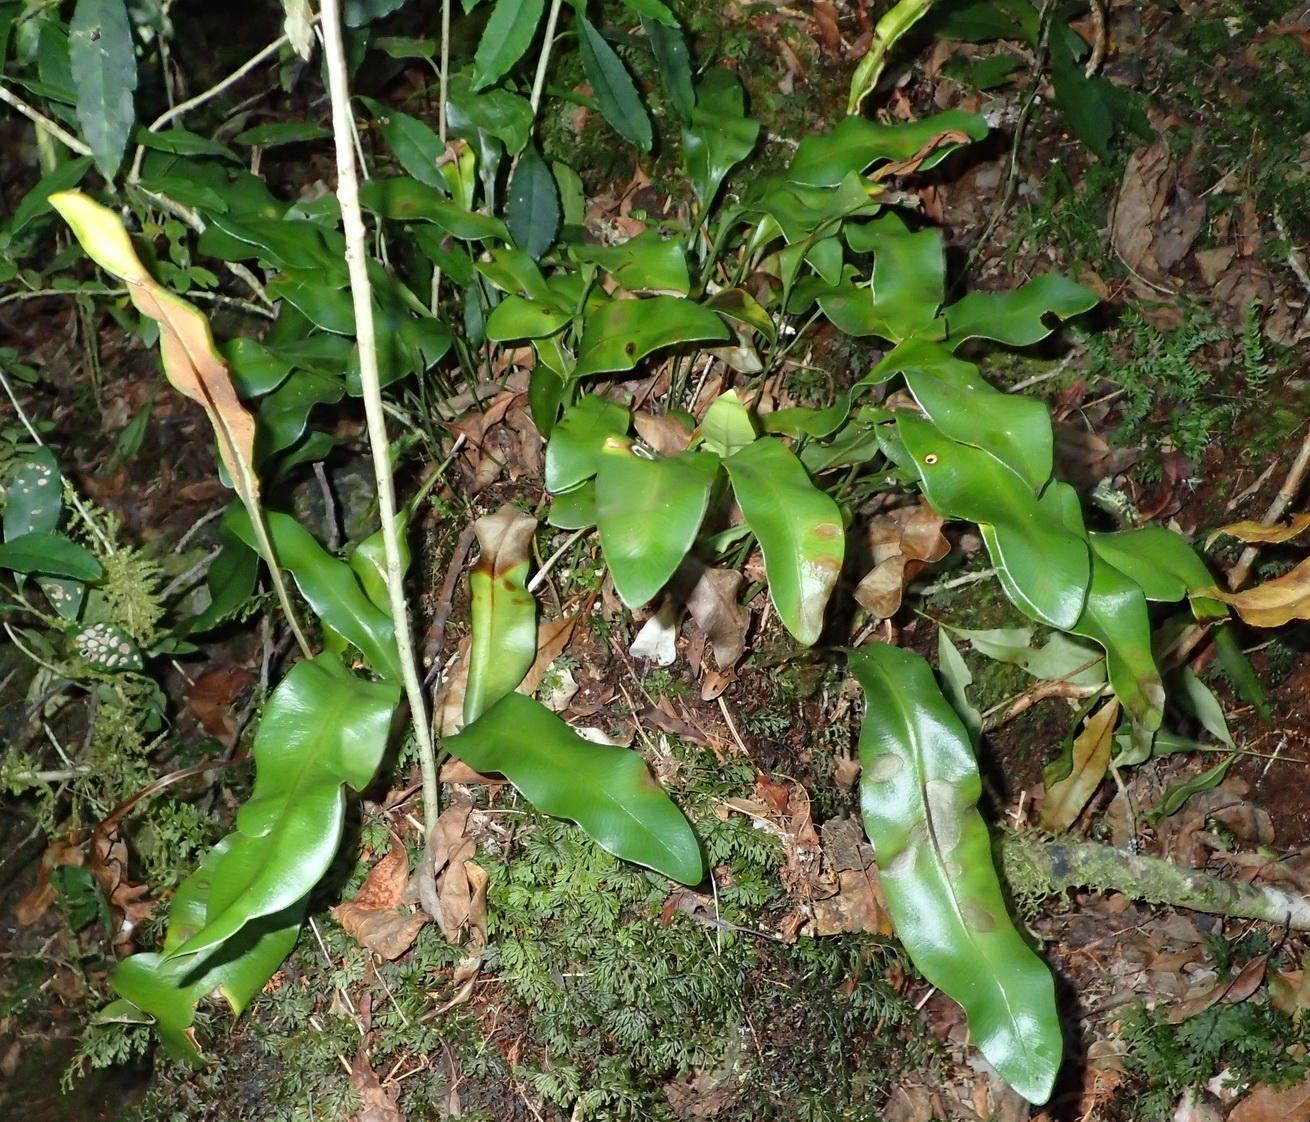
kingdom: Plantae
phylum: Tracheophyta
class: Polypodiopsida
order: Polypodiales
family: Dryopteridaceae
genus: Elaphoglossum
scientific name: Elaphoglossum angustatum
